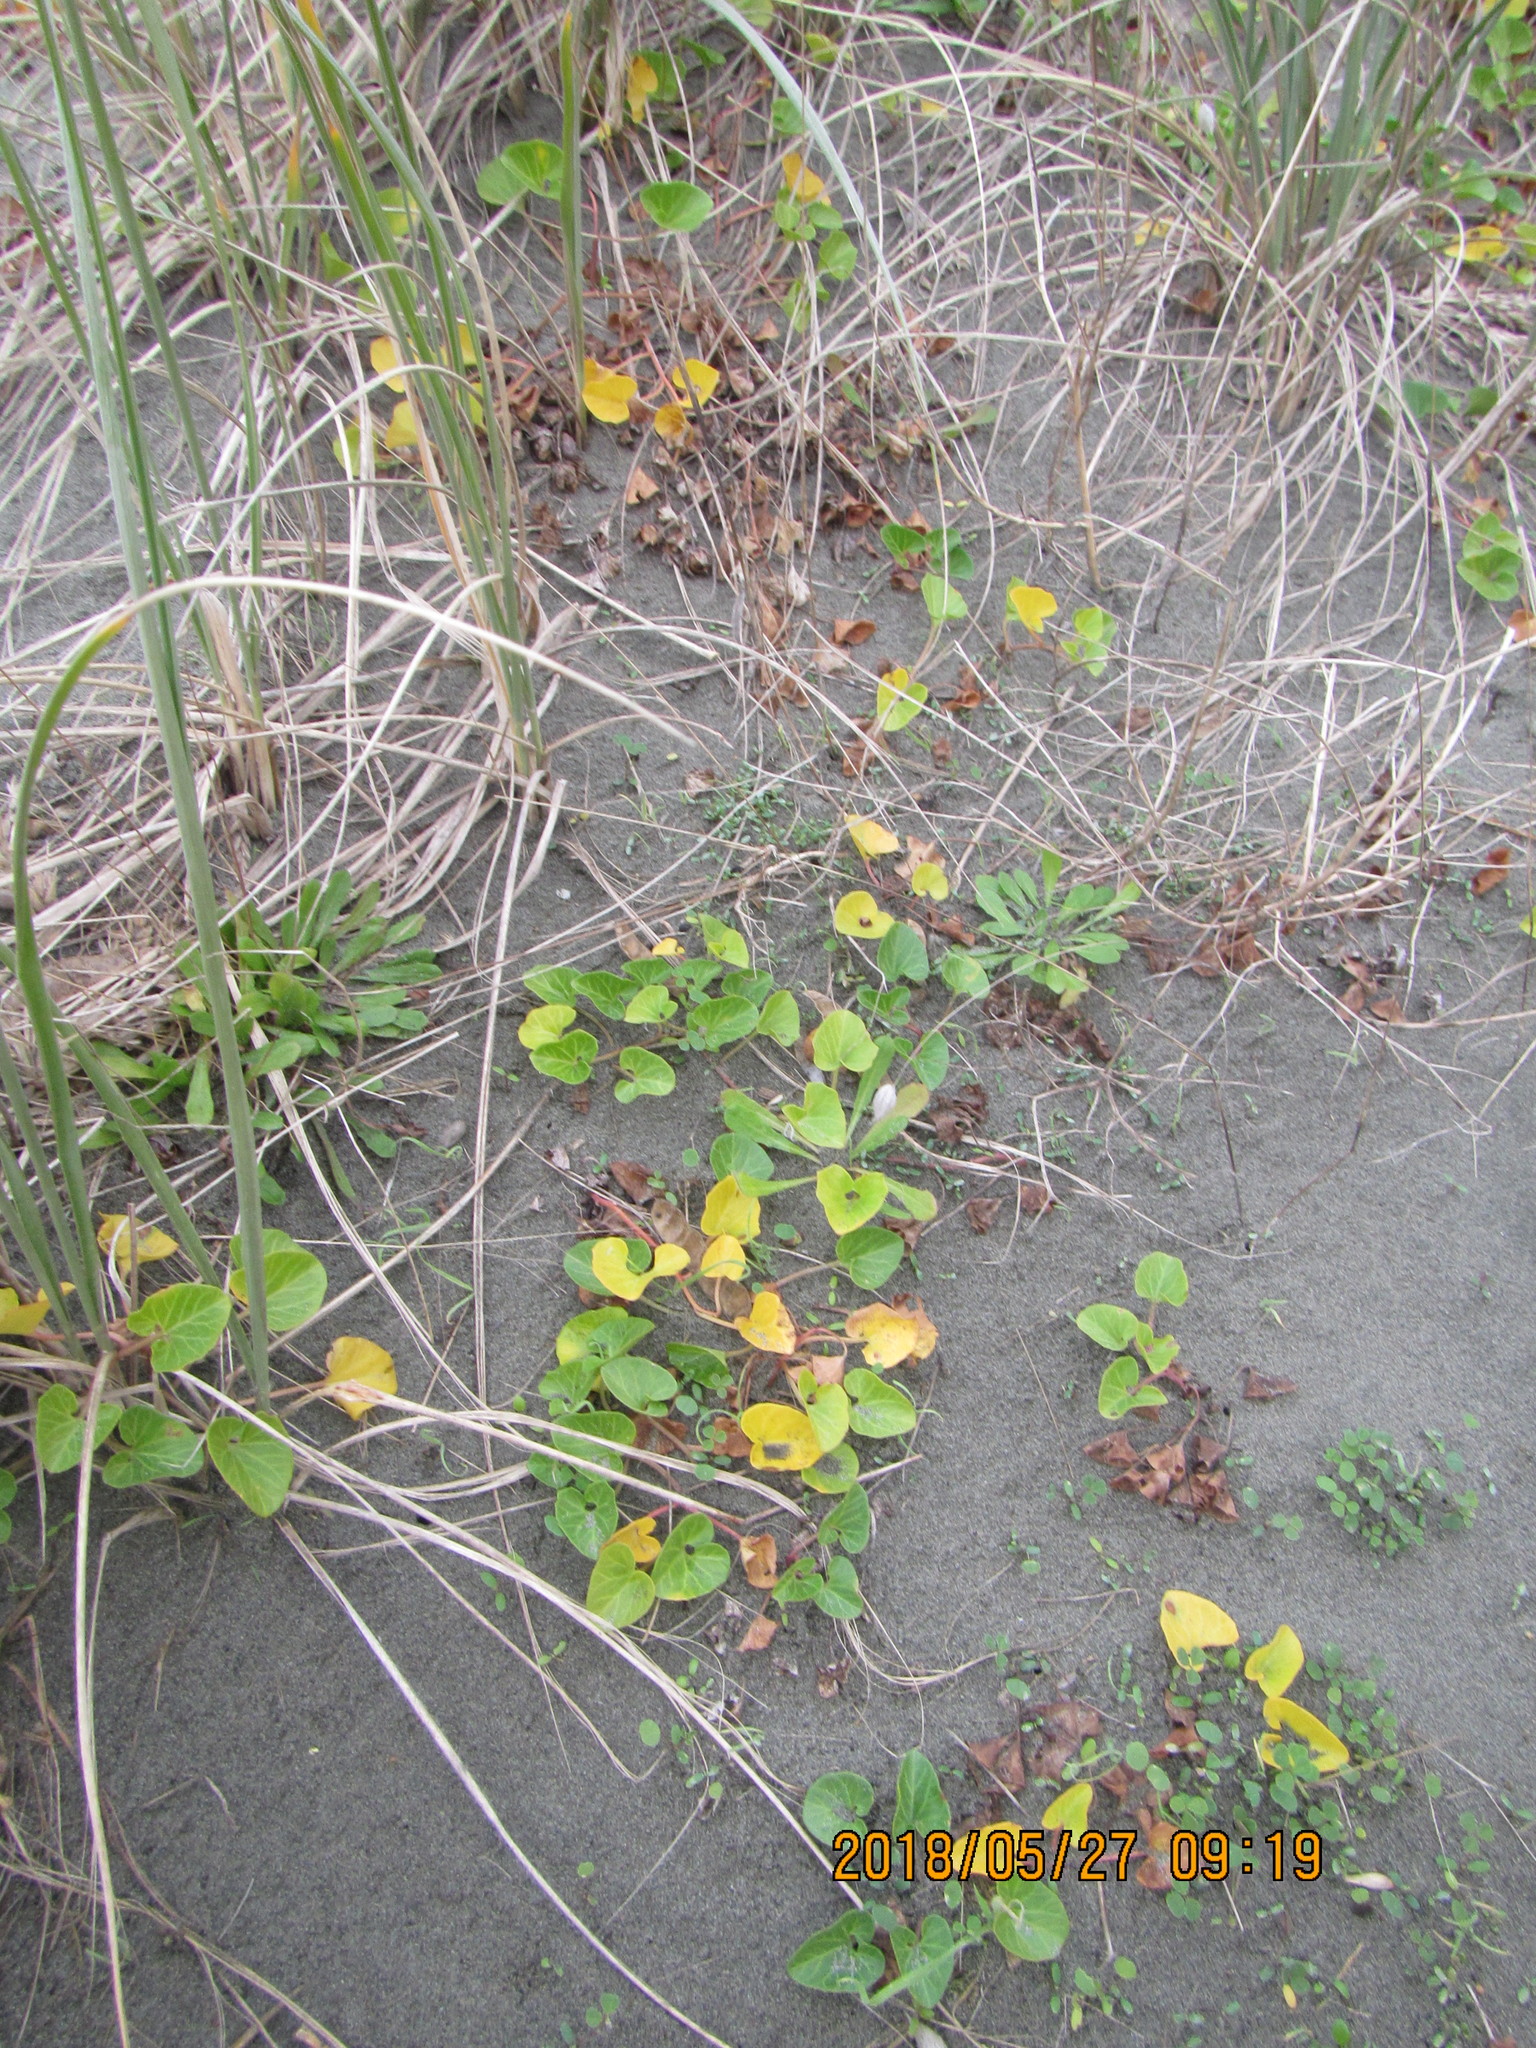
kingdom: Plantae
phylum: Tracheophyta
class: Magnoliopsida
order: Solanales
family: Convolvulaceae
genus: Calystegia
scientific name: Calystegia soldanella
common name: Sea bindweed
